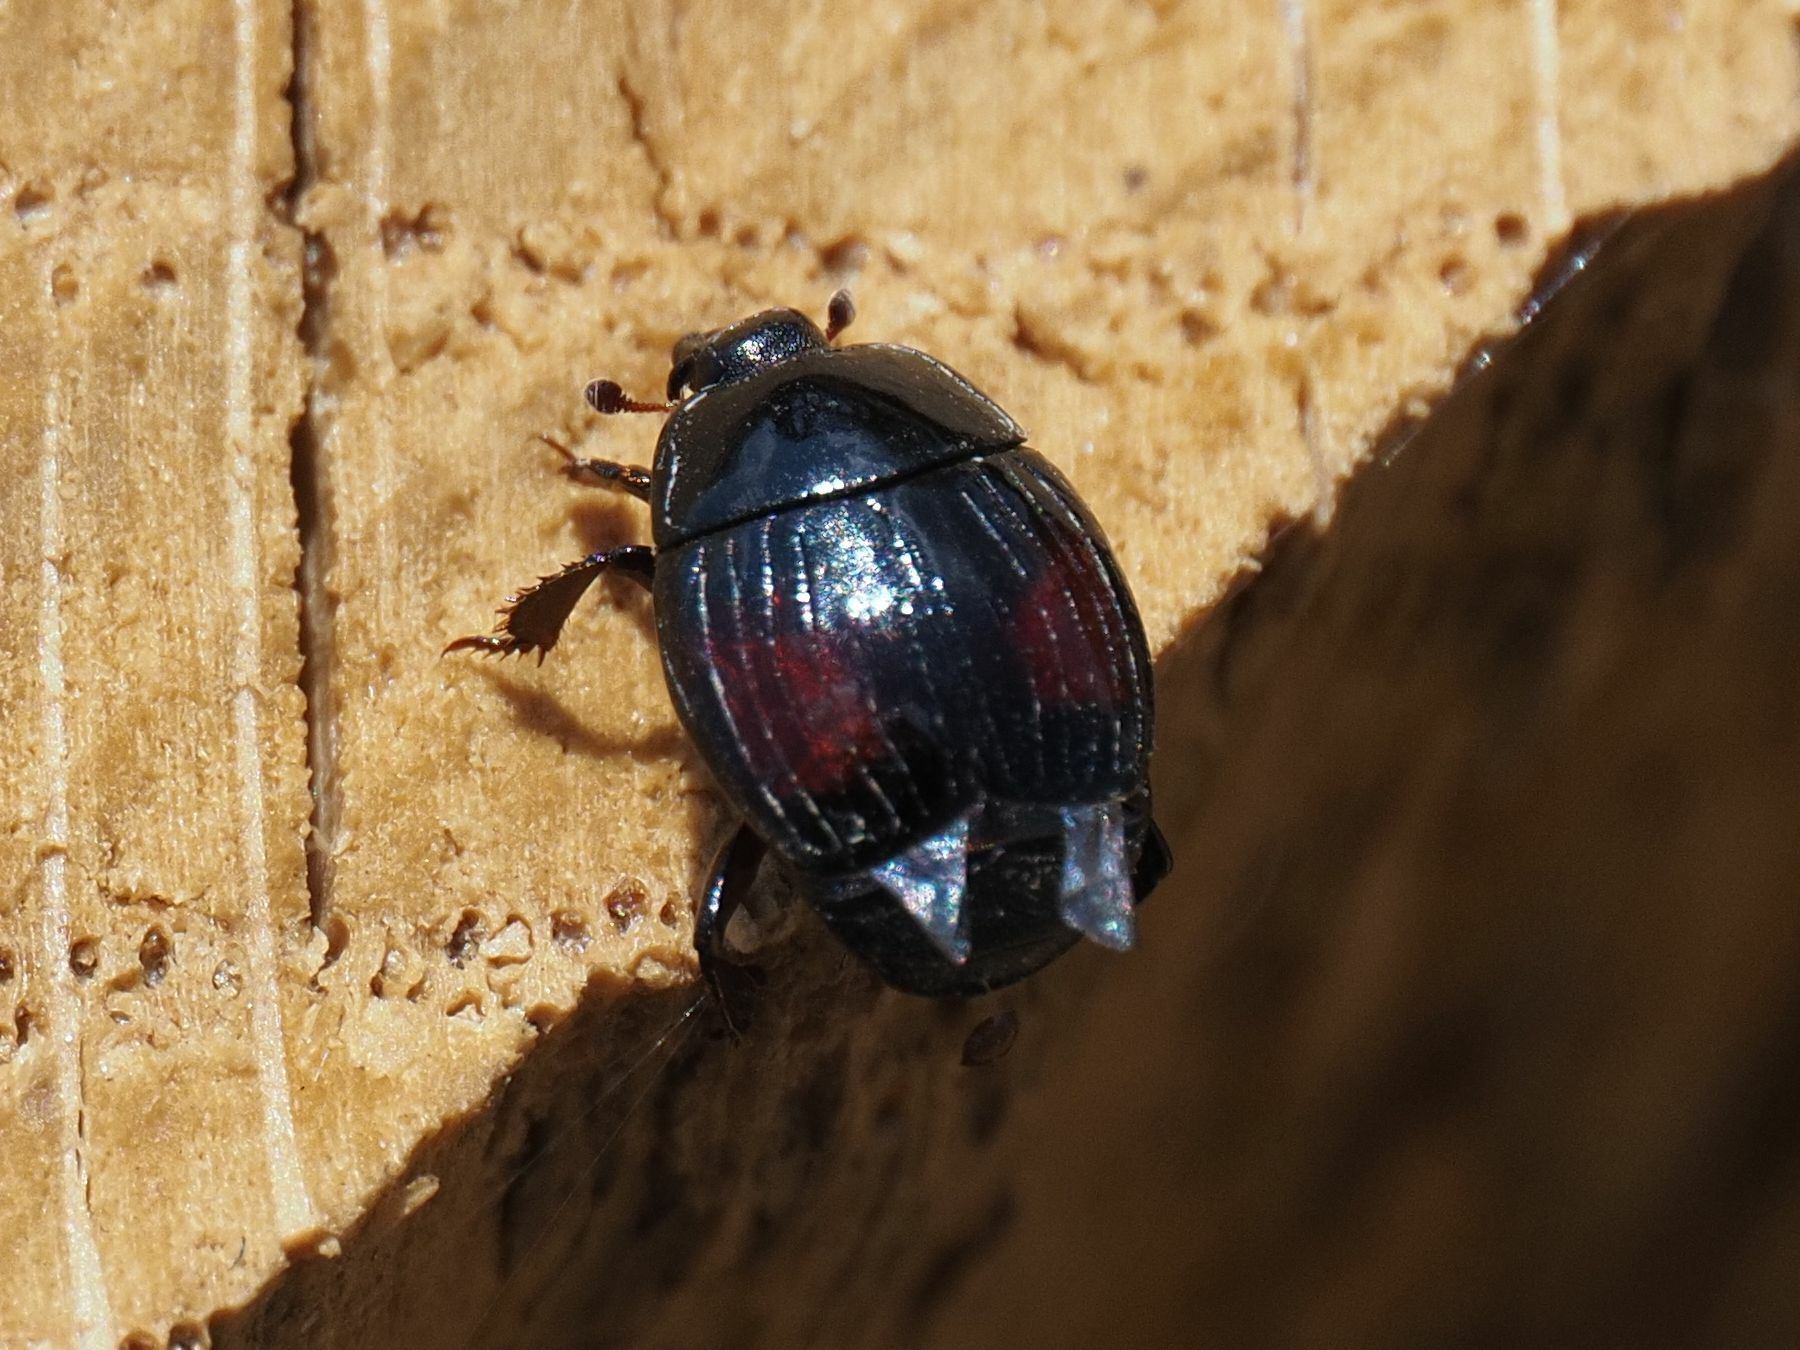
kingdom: Animalia
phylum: Arthropoda
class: Insecta
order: Coleoptera
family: Histeridae
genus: Margarinotus
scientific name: Margarinotus purpurascens
